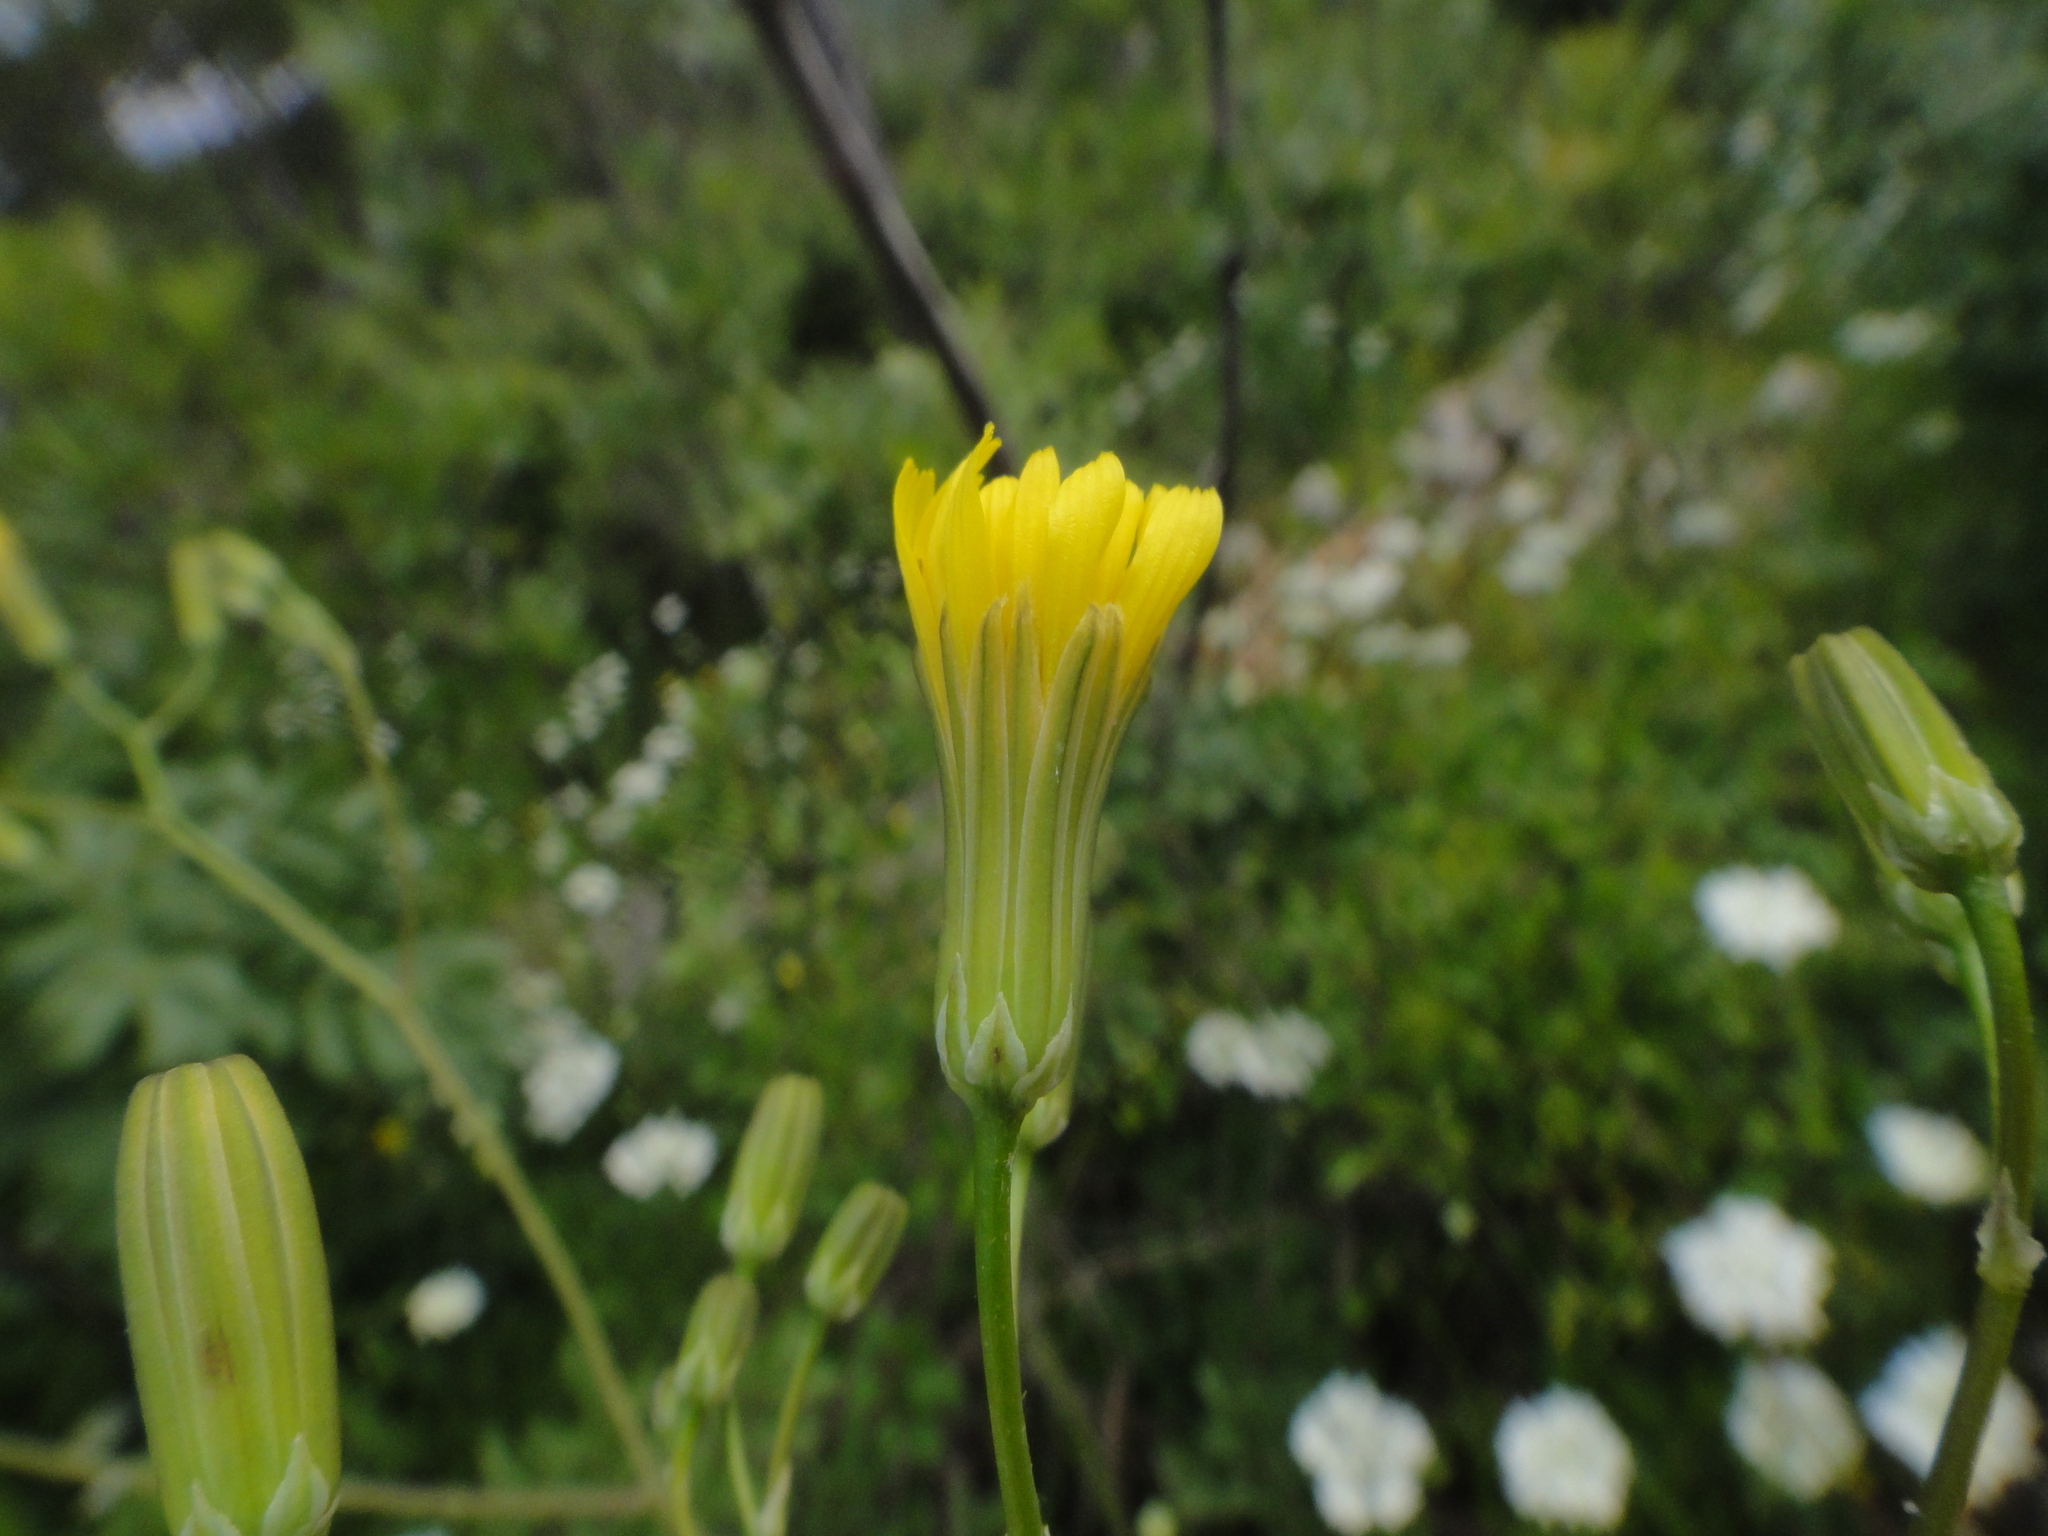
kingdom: Plantae
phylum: Tracheophyta
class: Magnoliopsida
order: Asterales
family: Asteraceae
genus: Crepis
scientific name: Crepis pulchra
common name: Hawk's-beard
